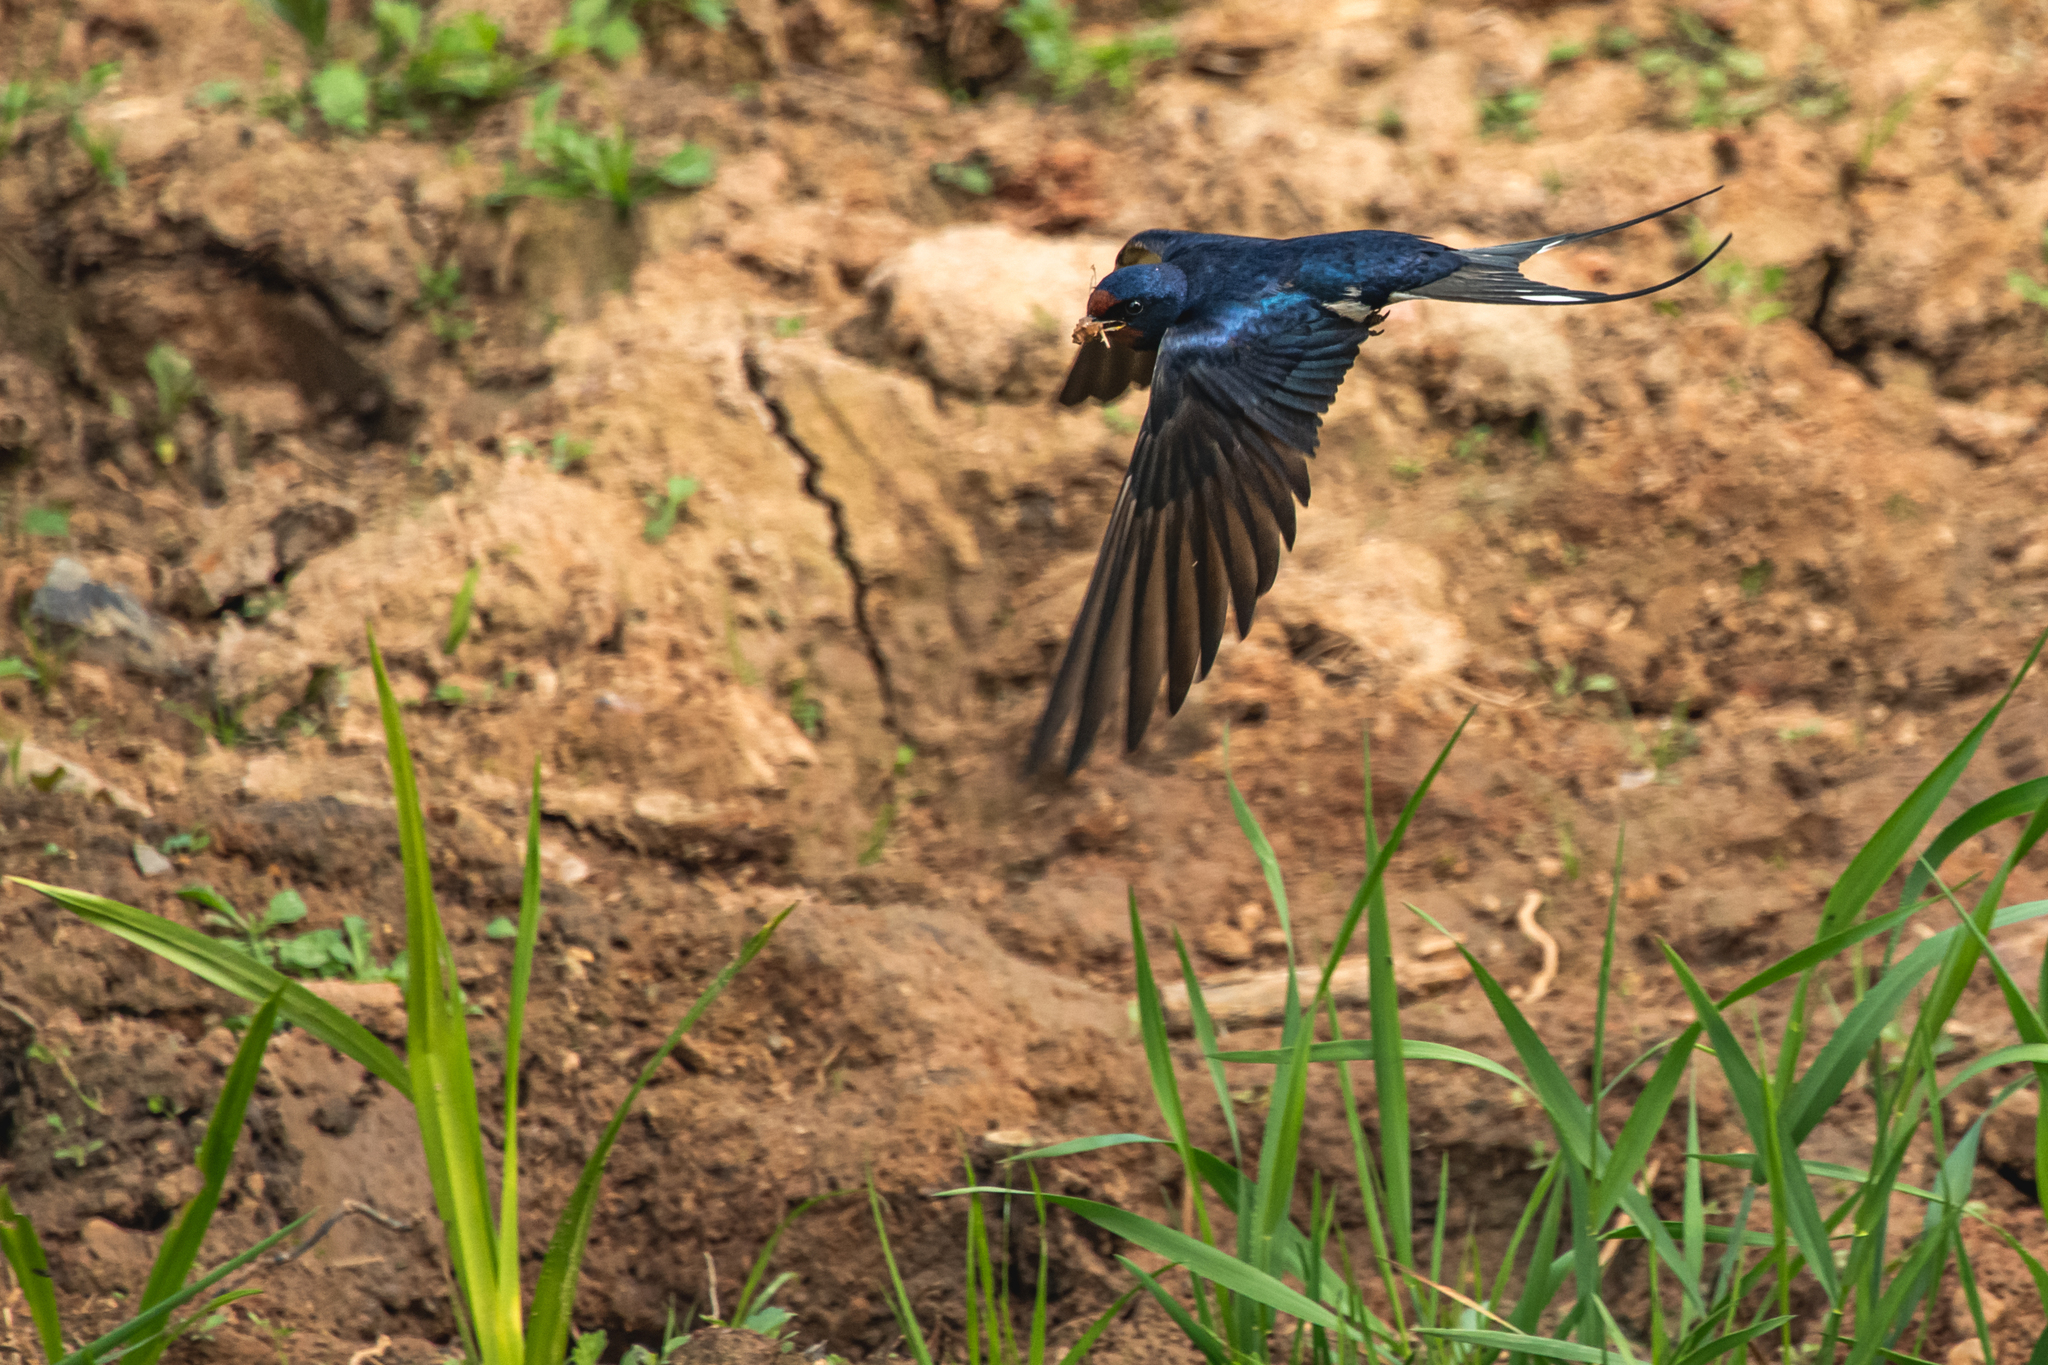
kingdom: Animalia
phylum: Chordata
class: Aves
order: Passeriformes
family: Hirundinidae
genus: Hirundo
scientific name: Hirundo rustica
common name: Barn swallow
